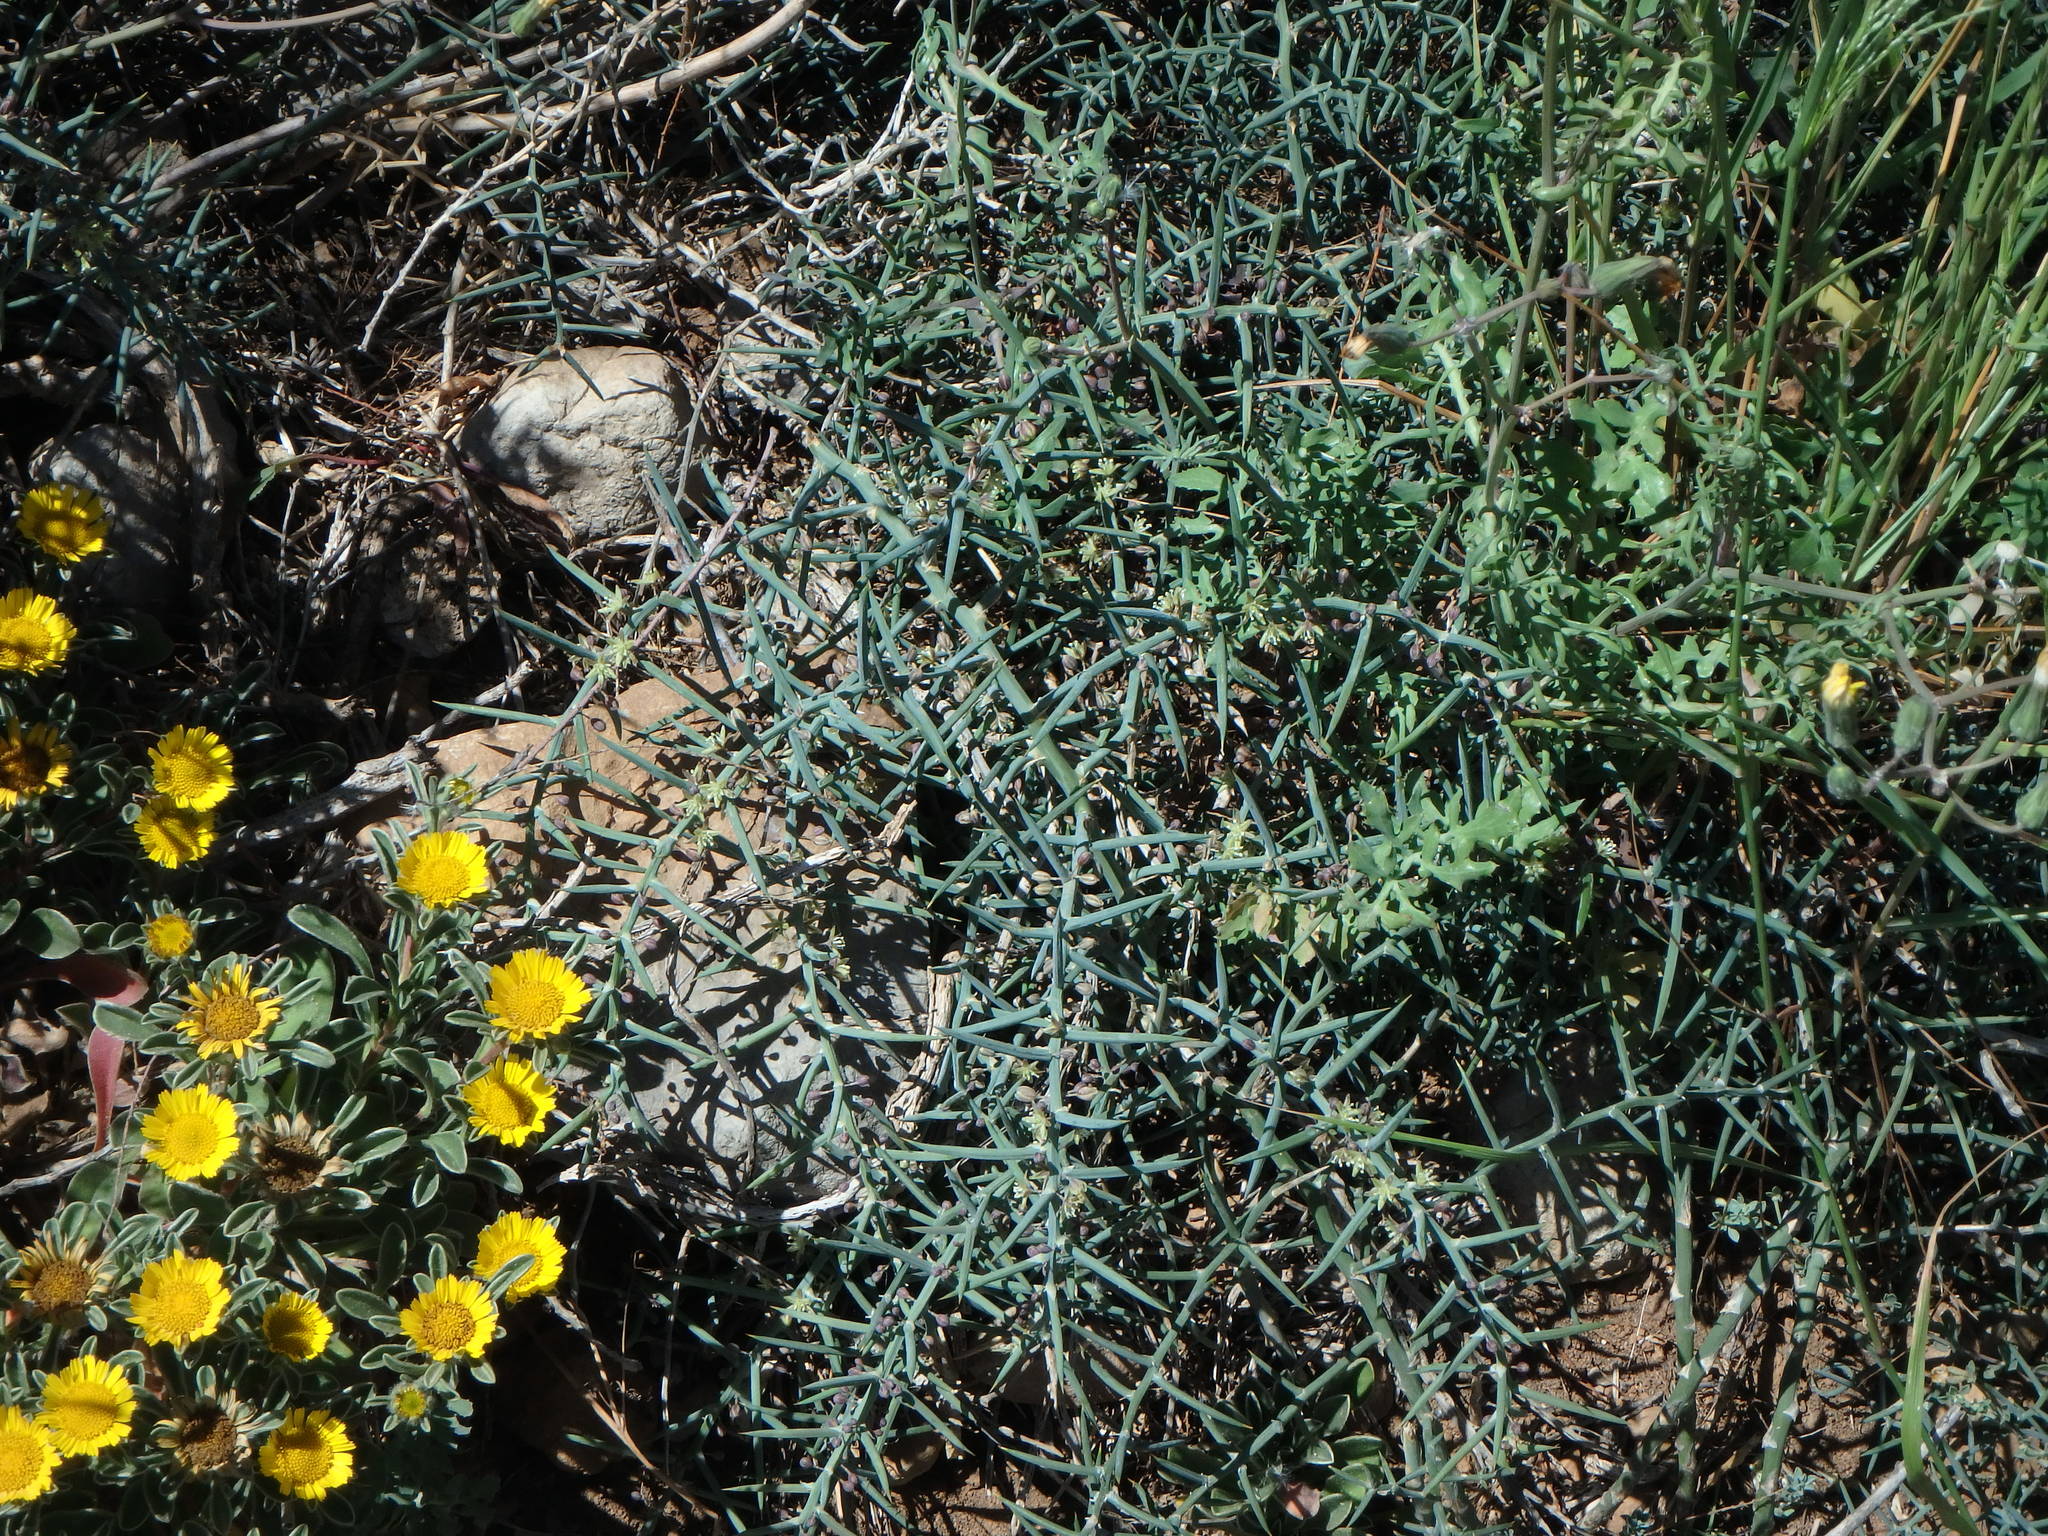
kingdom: Plantae
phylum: Tracheophyta
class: Liliopsida
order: Asparagales
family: Asparagaceae
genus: Asparagus
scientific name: Asparagus horridus
